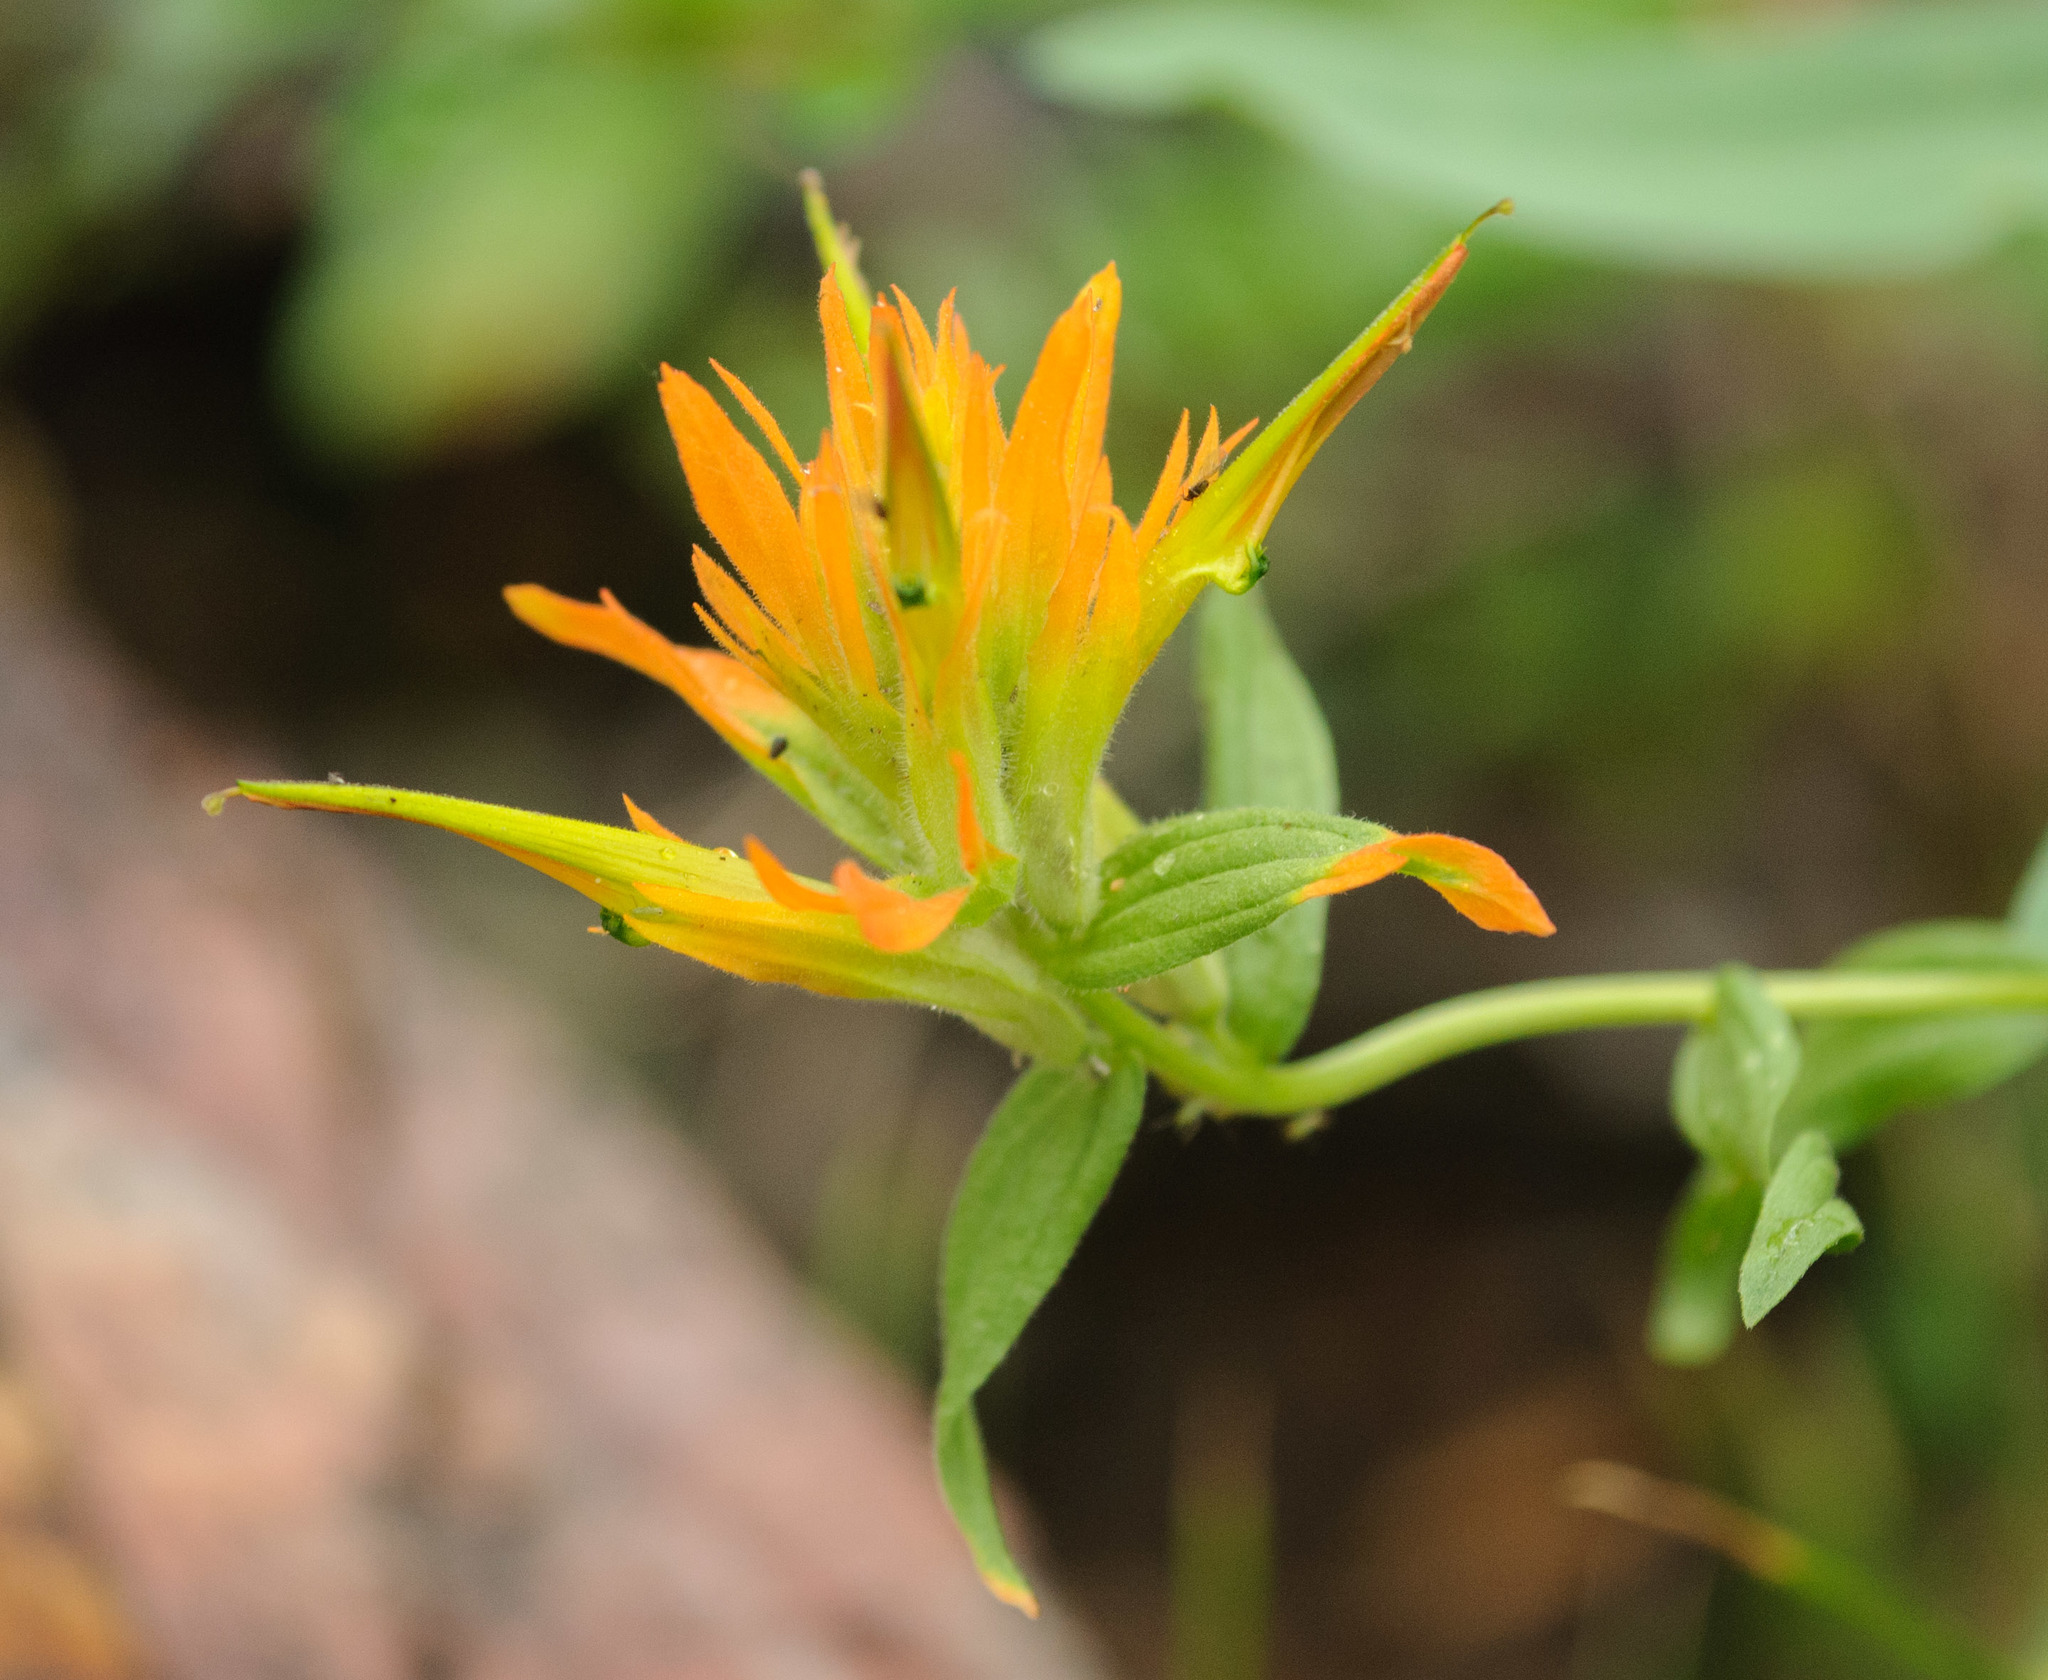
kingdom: Plantae
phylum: Tracheophyta
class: Magnoliopsida
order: Lamiales
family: Orobanchaceae
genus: Castilleja
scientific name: Castilleja miniata
